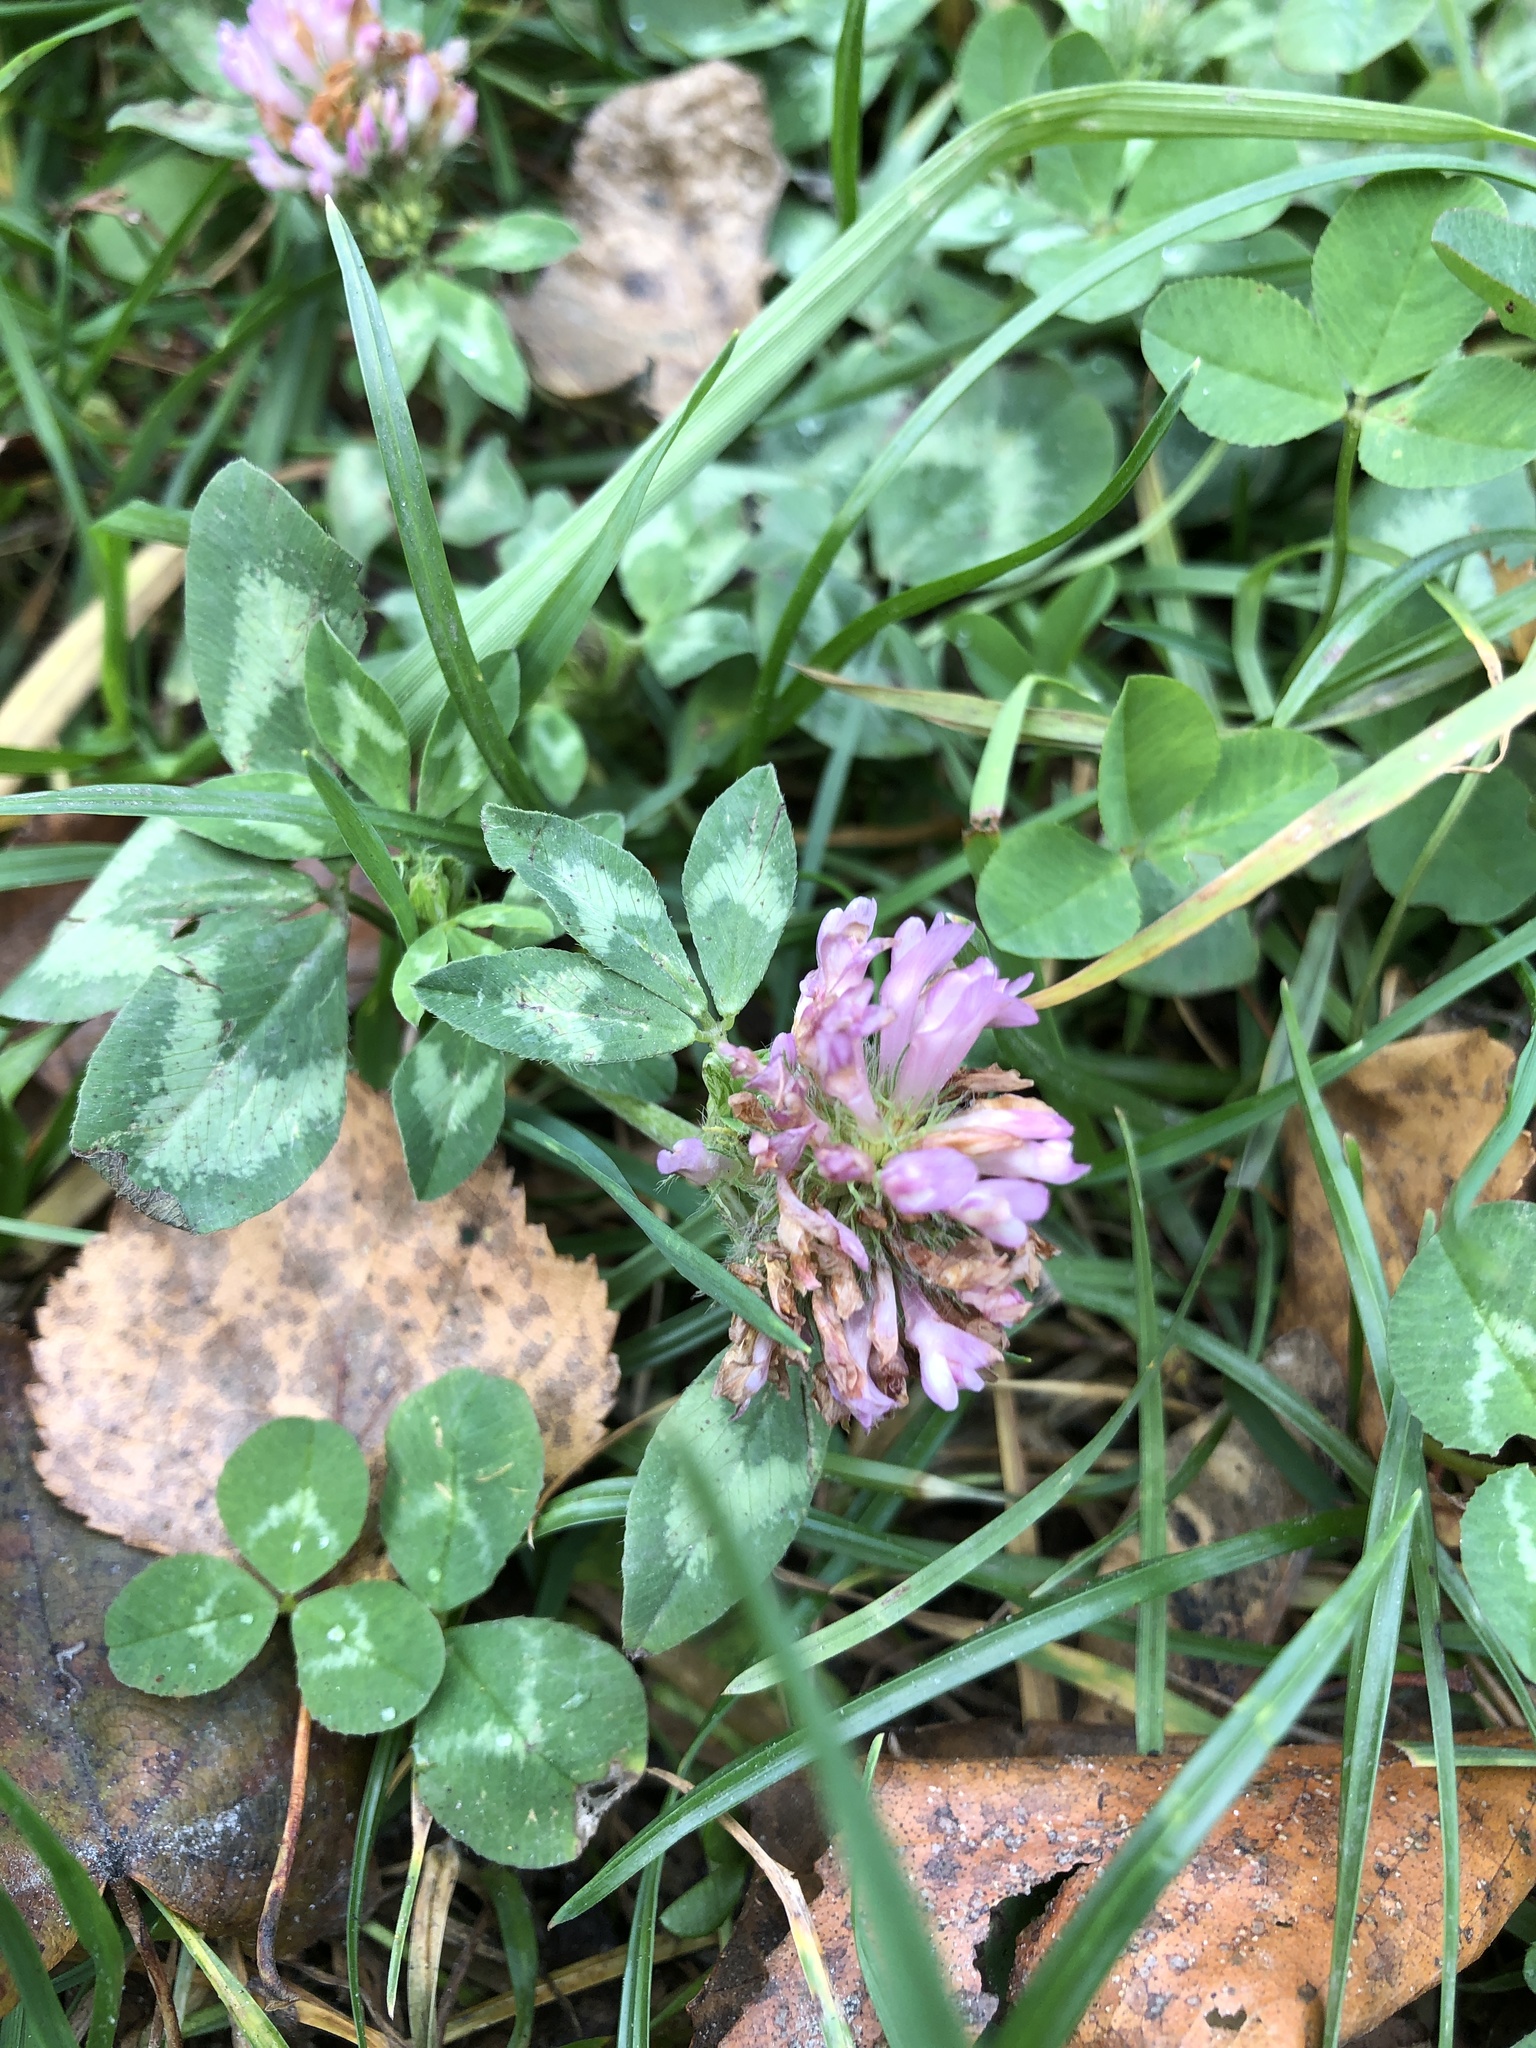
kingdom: Plantae
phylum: Tracheophyta
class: Magnoliopsida
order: Fabales
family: Fabaceae
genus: Trifolium
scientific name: Trifolium pratense
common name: Red clover
